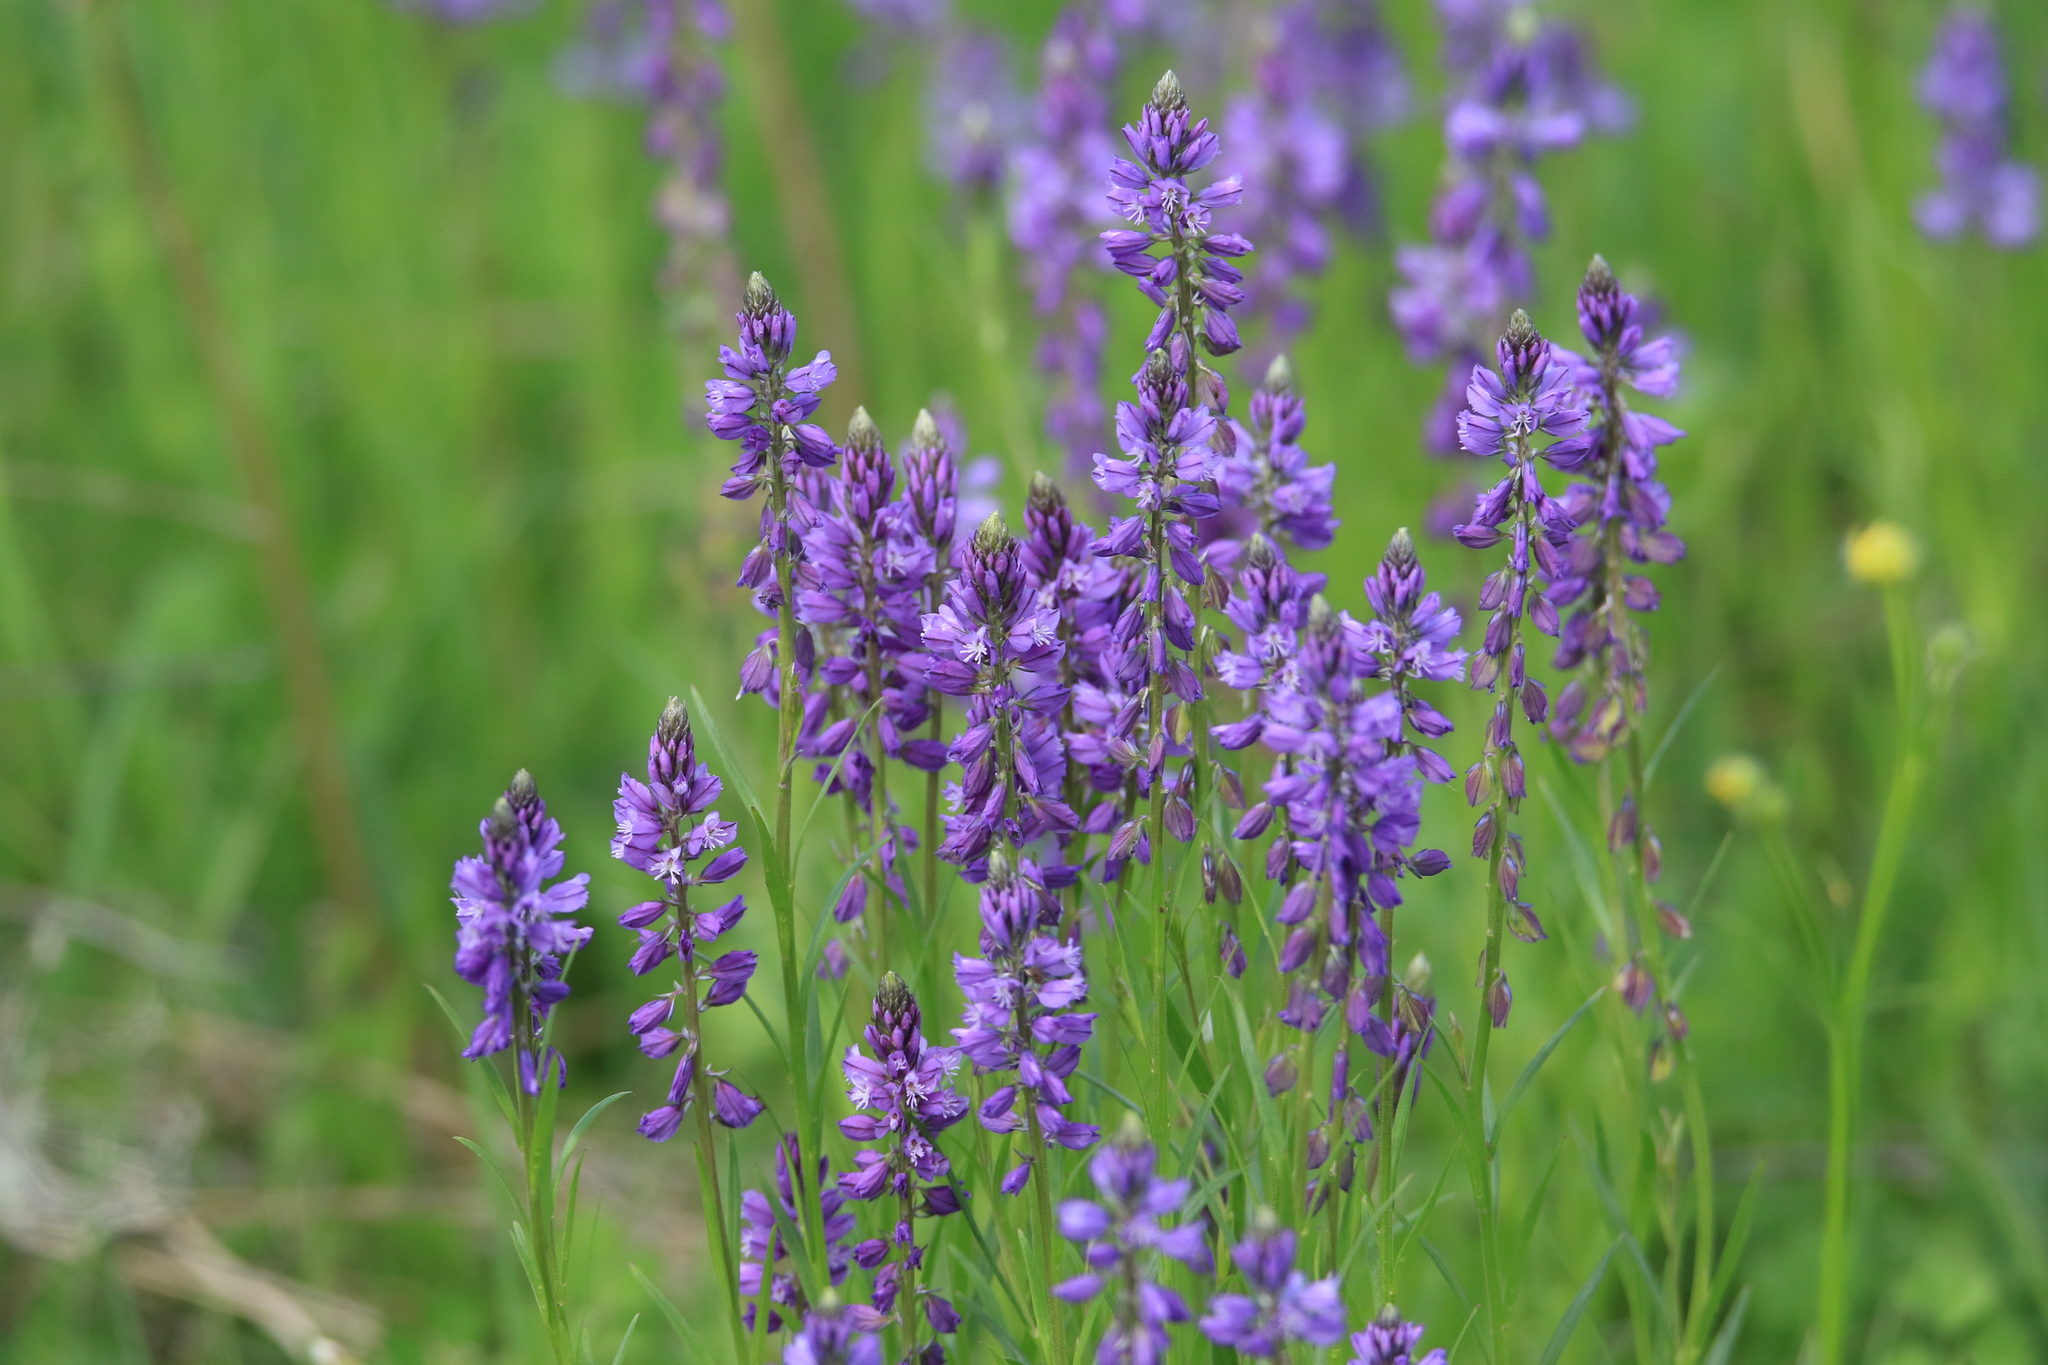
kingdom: Plantae
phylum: Tracheophyta
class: Magnoliopsida
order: Fabales
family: Polygalaceae
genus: Polygala
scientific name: Polygala comosa
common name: Tufted milkwort
